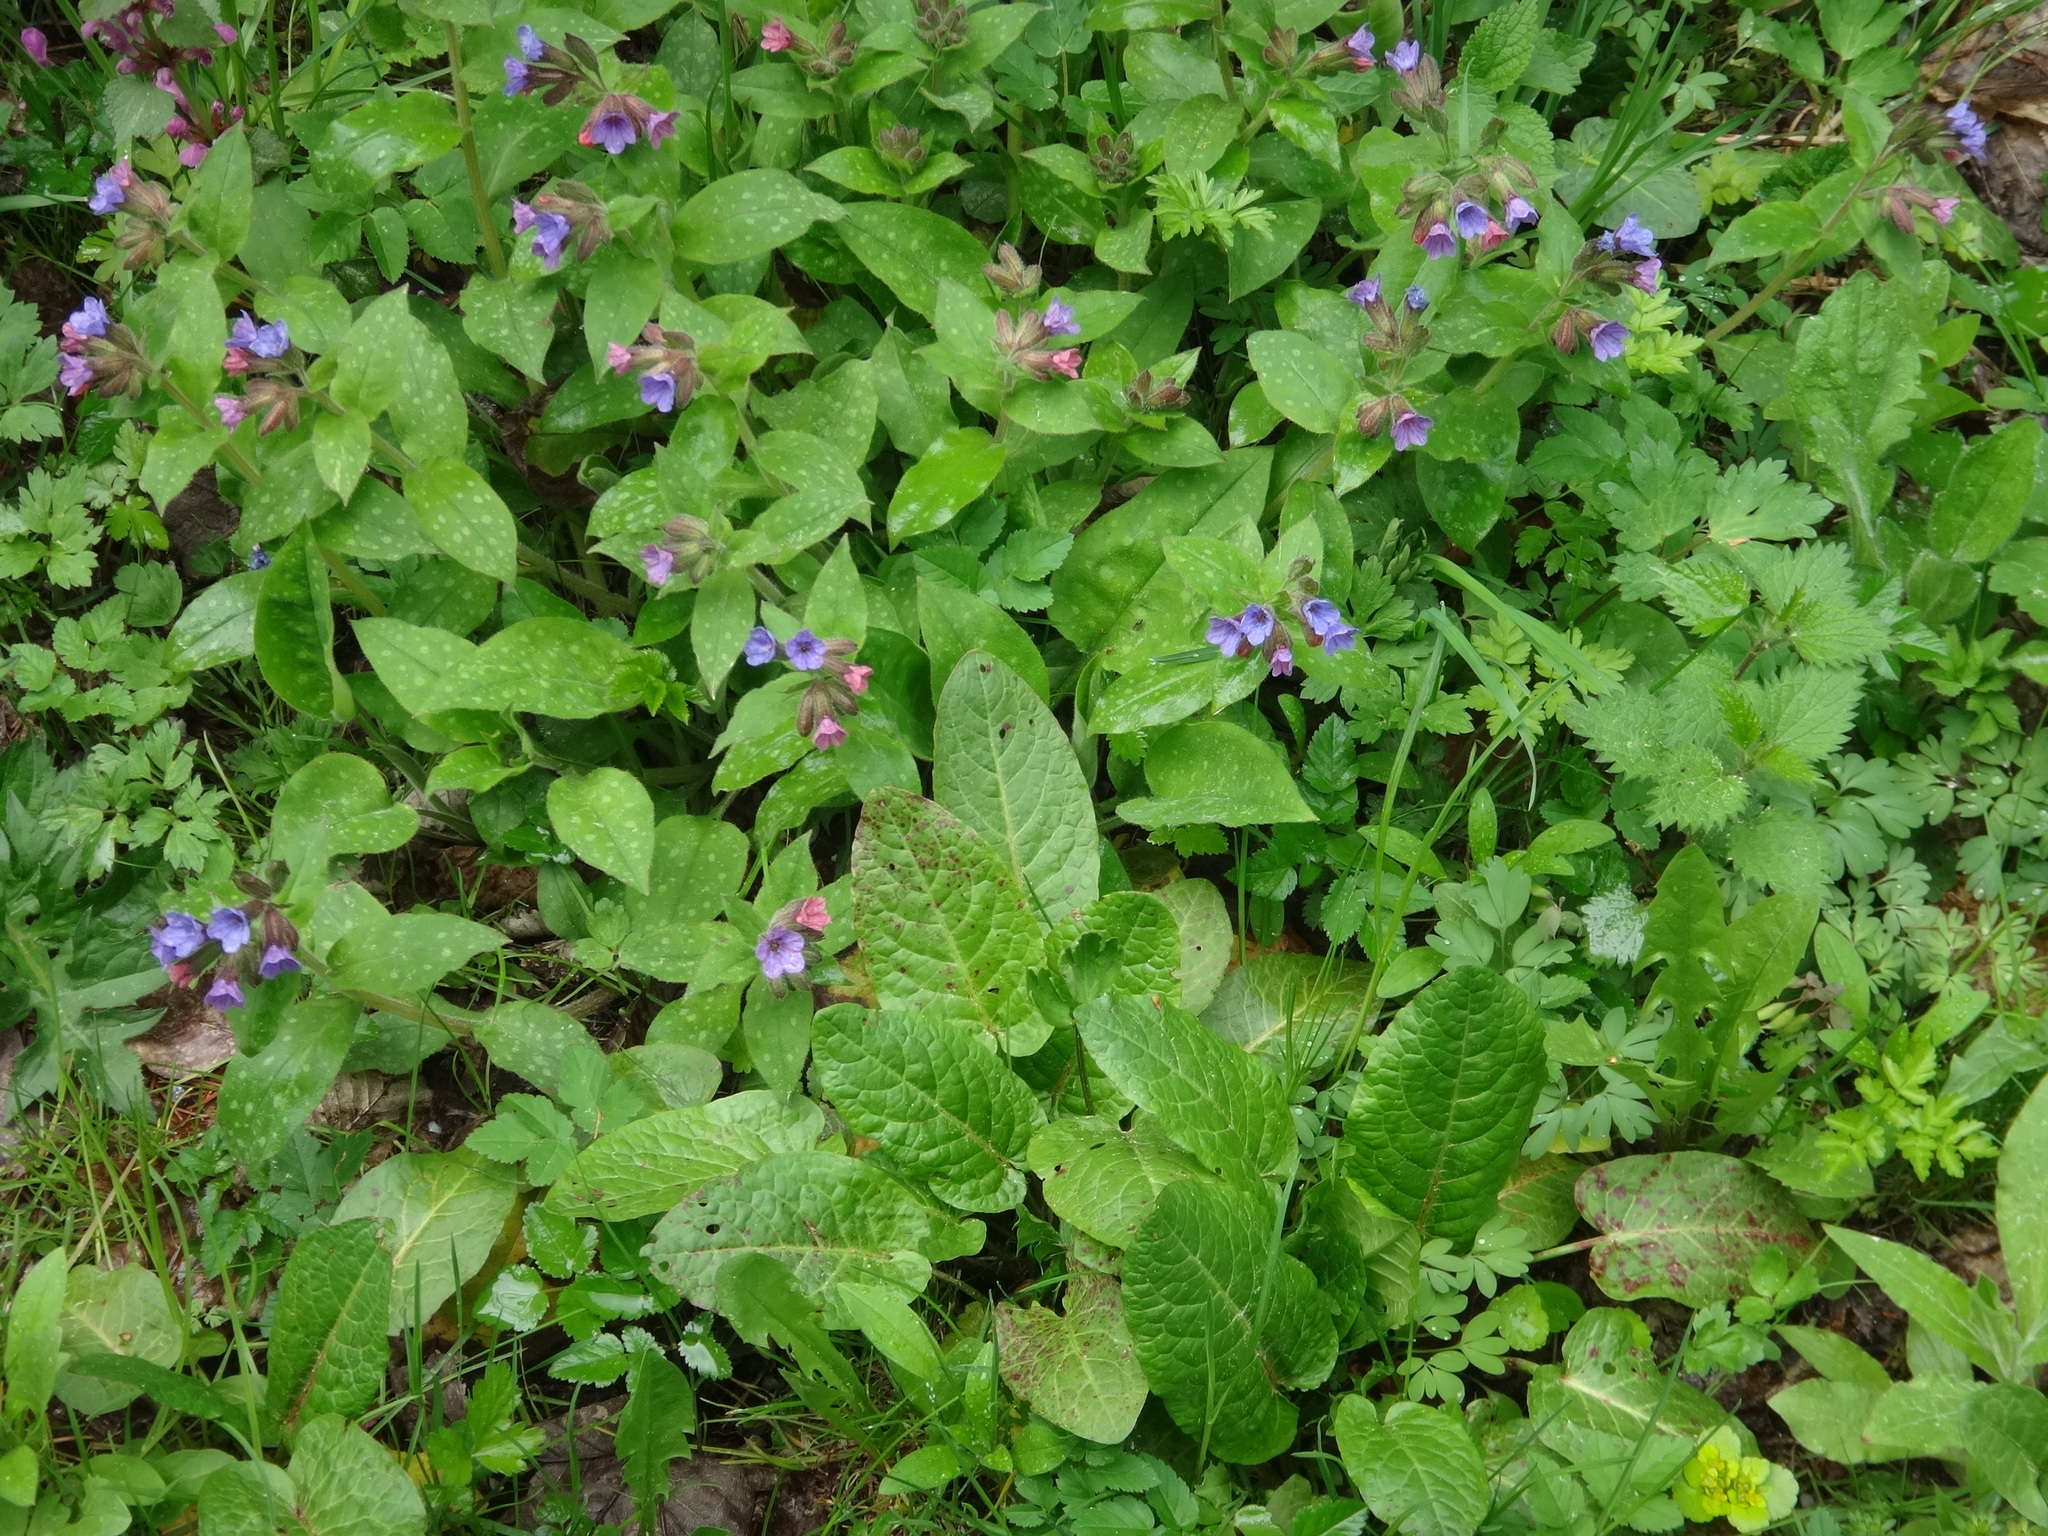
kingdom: Plantae
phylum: Tracheophyta
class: Magnoliopsida
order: Boraginales
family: Boraginaceae
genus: Pulmonaria
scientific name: Pulmonaria officinalis
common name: Lungwort
